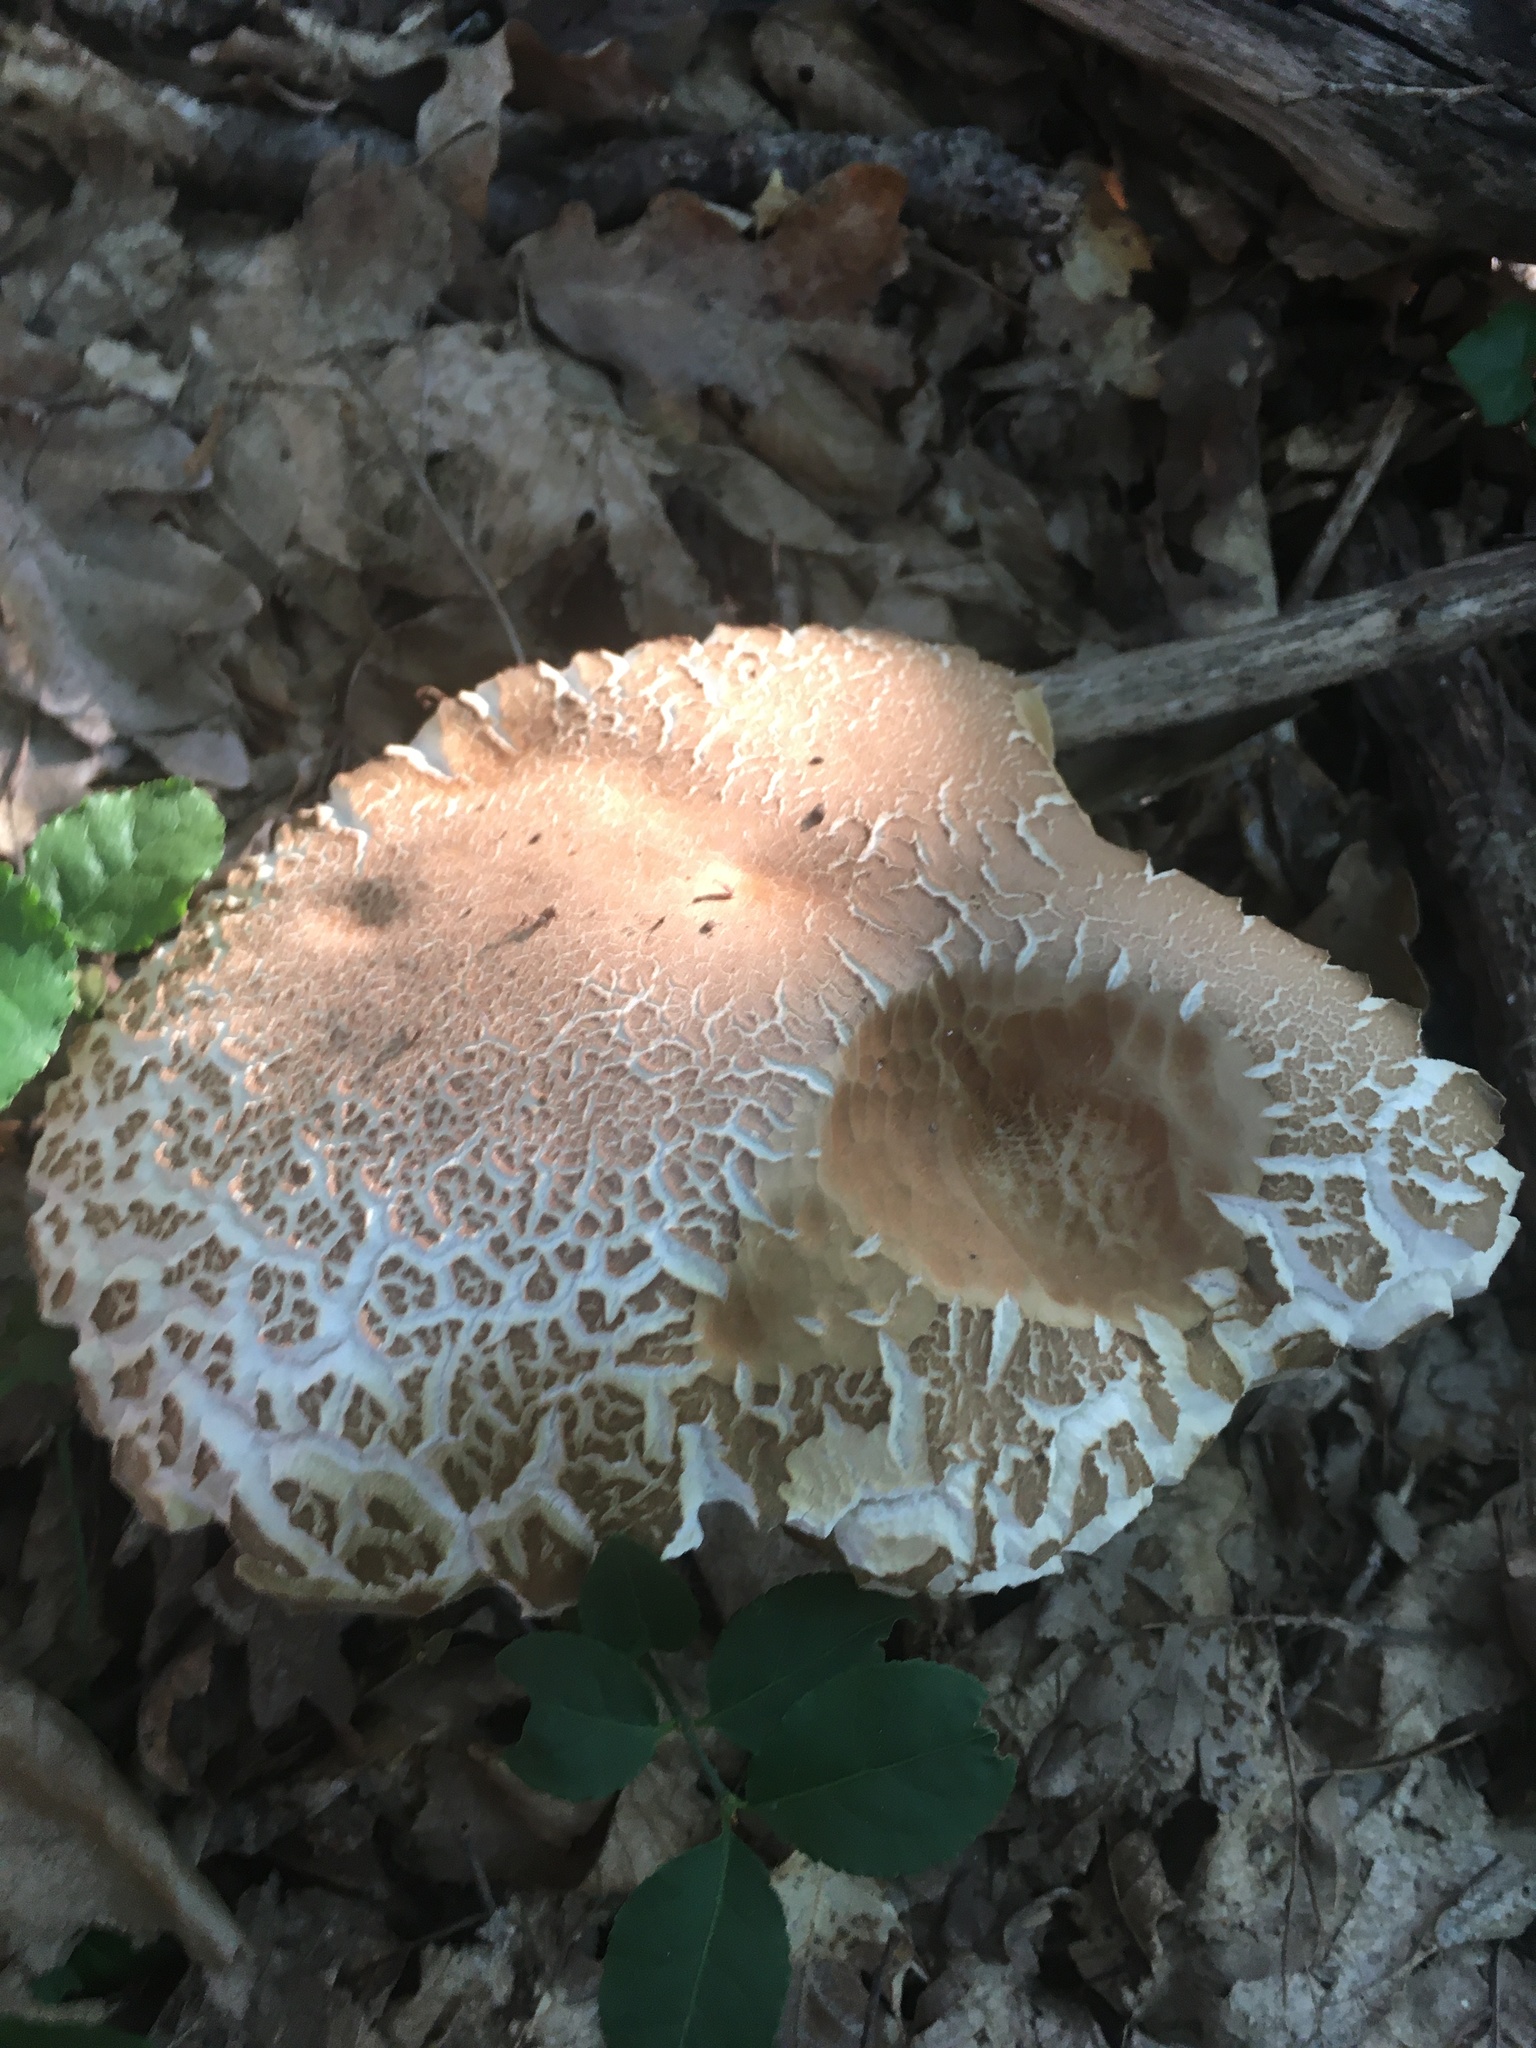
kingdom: Fungi
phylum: Basidiomycota
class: Agaricomycetes
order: Boletales
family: Boletaceae
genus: Boletus
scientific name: Boletus reticulatus
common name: Summer bolete
